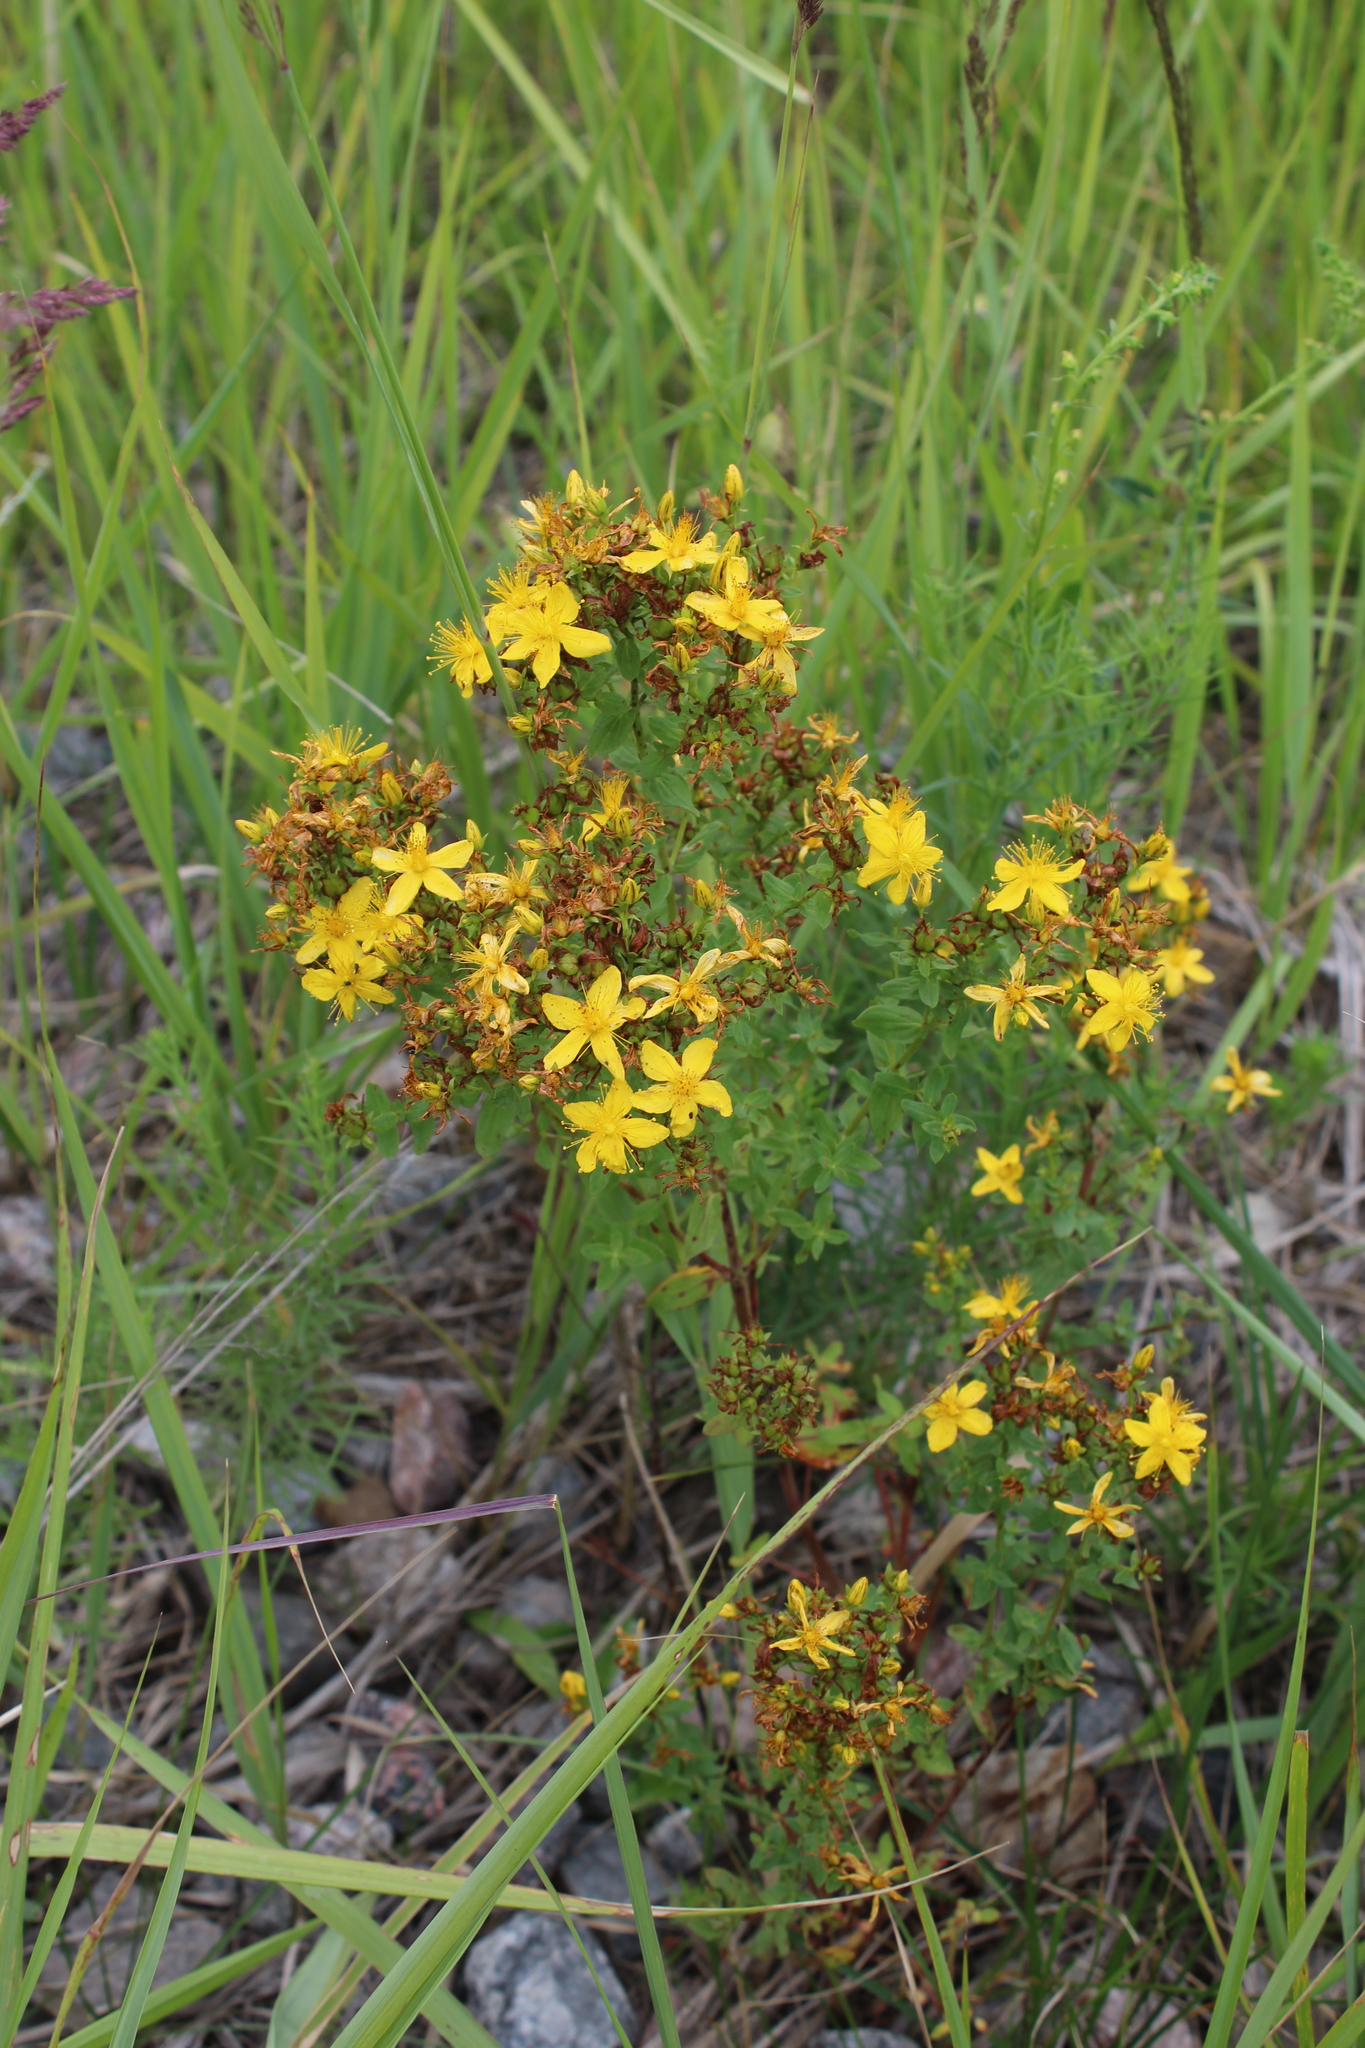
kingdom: Plantae
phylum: Tracheophyta
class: Magnoliopsida
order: Malpighiales
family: Hypericaceae
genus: Hypericum
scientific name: Hypericum perforatum
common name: Common st. johnswort
